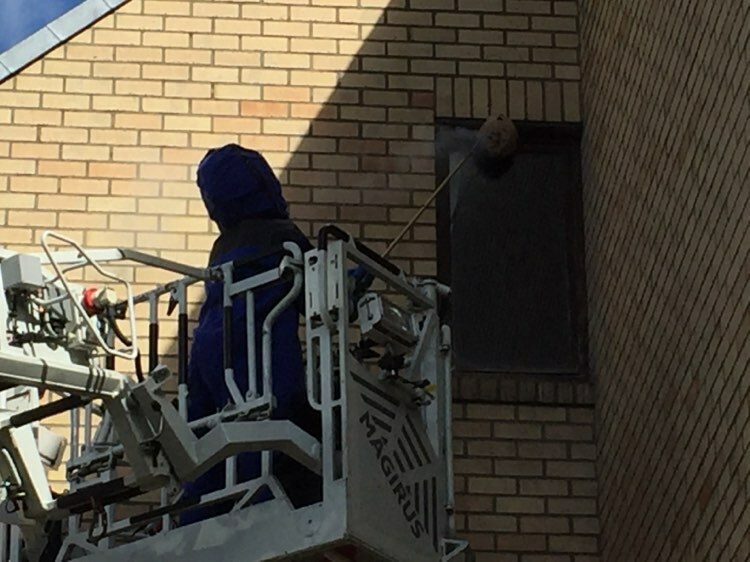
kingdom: Animalia
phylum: Arthropoda
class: Insecta
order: Hymenoptera
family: Vespidae
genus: Vespa
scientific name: Vespa velutina
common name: Asian hornet
